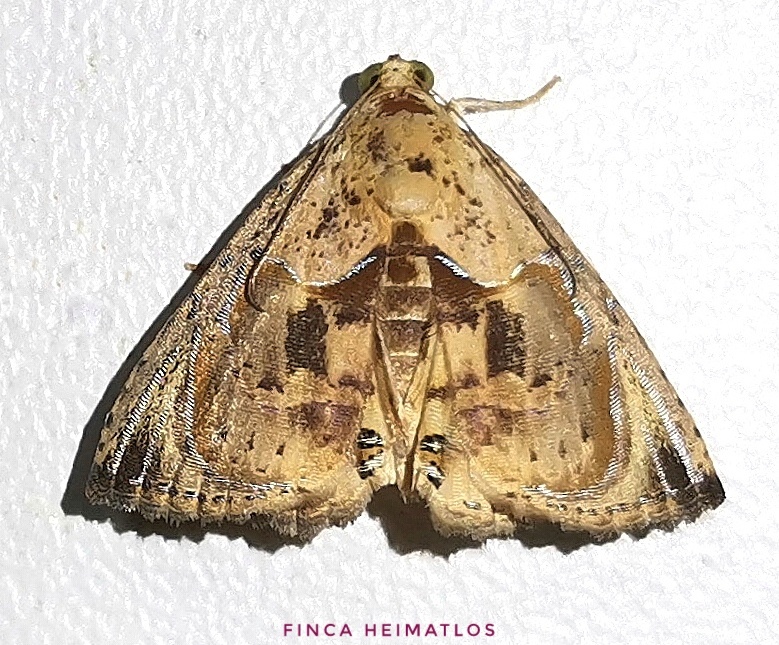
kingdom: Animalia
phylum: Arthropoda
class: Insecta
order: Lepidoptera
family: Erebidae
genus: Calydia
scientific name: Calydia osseata
